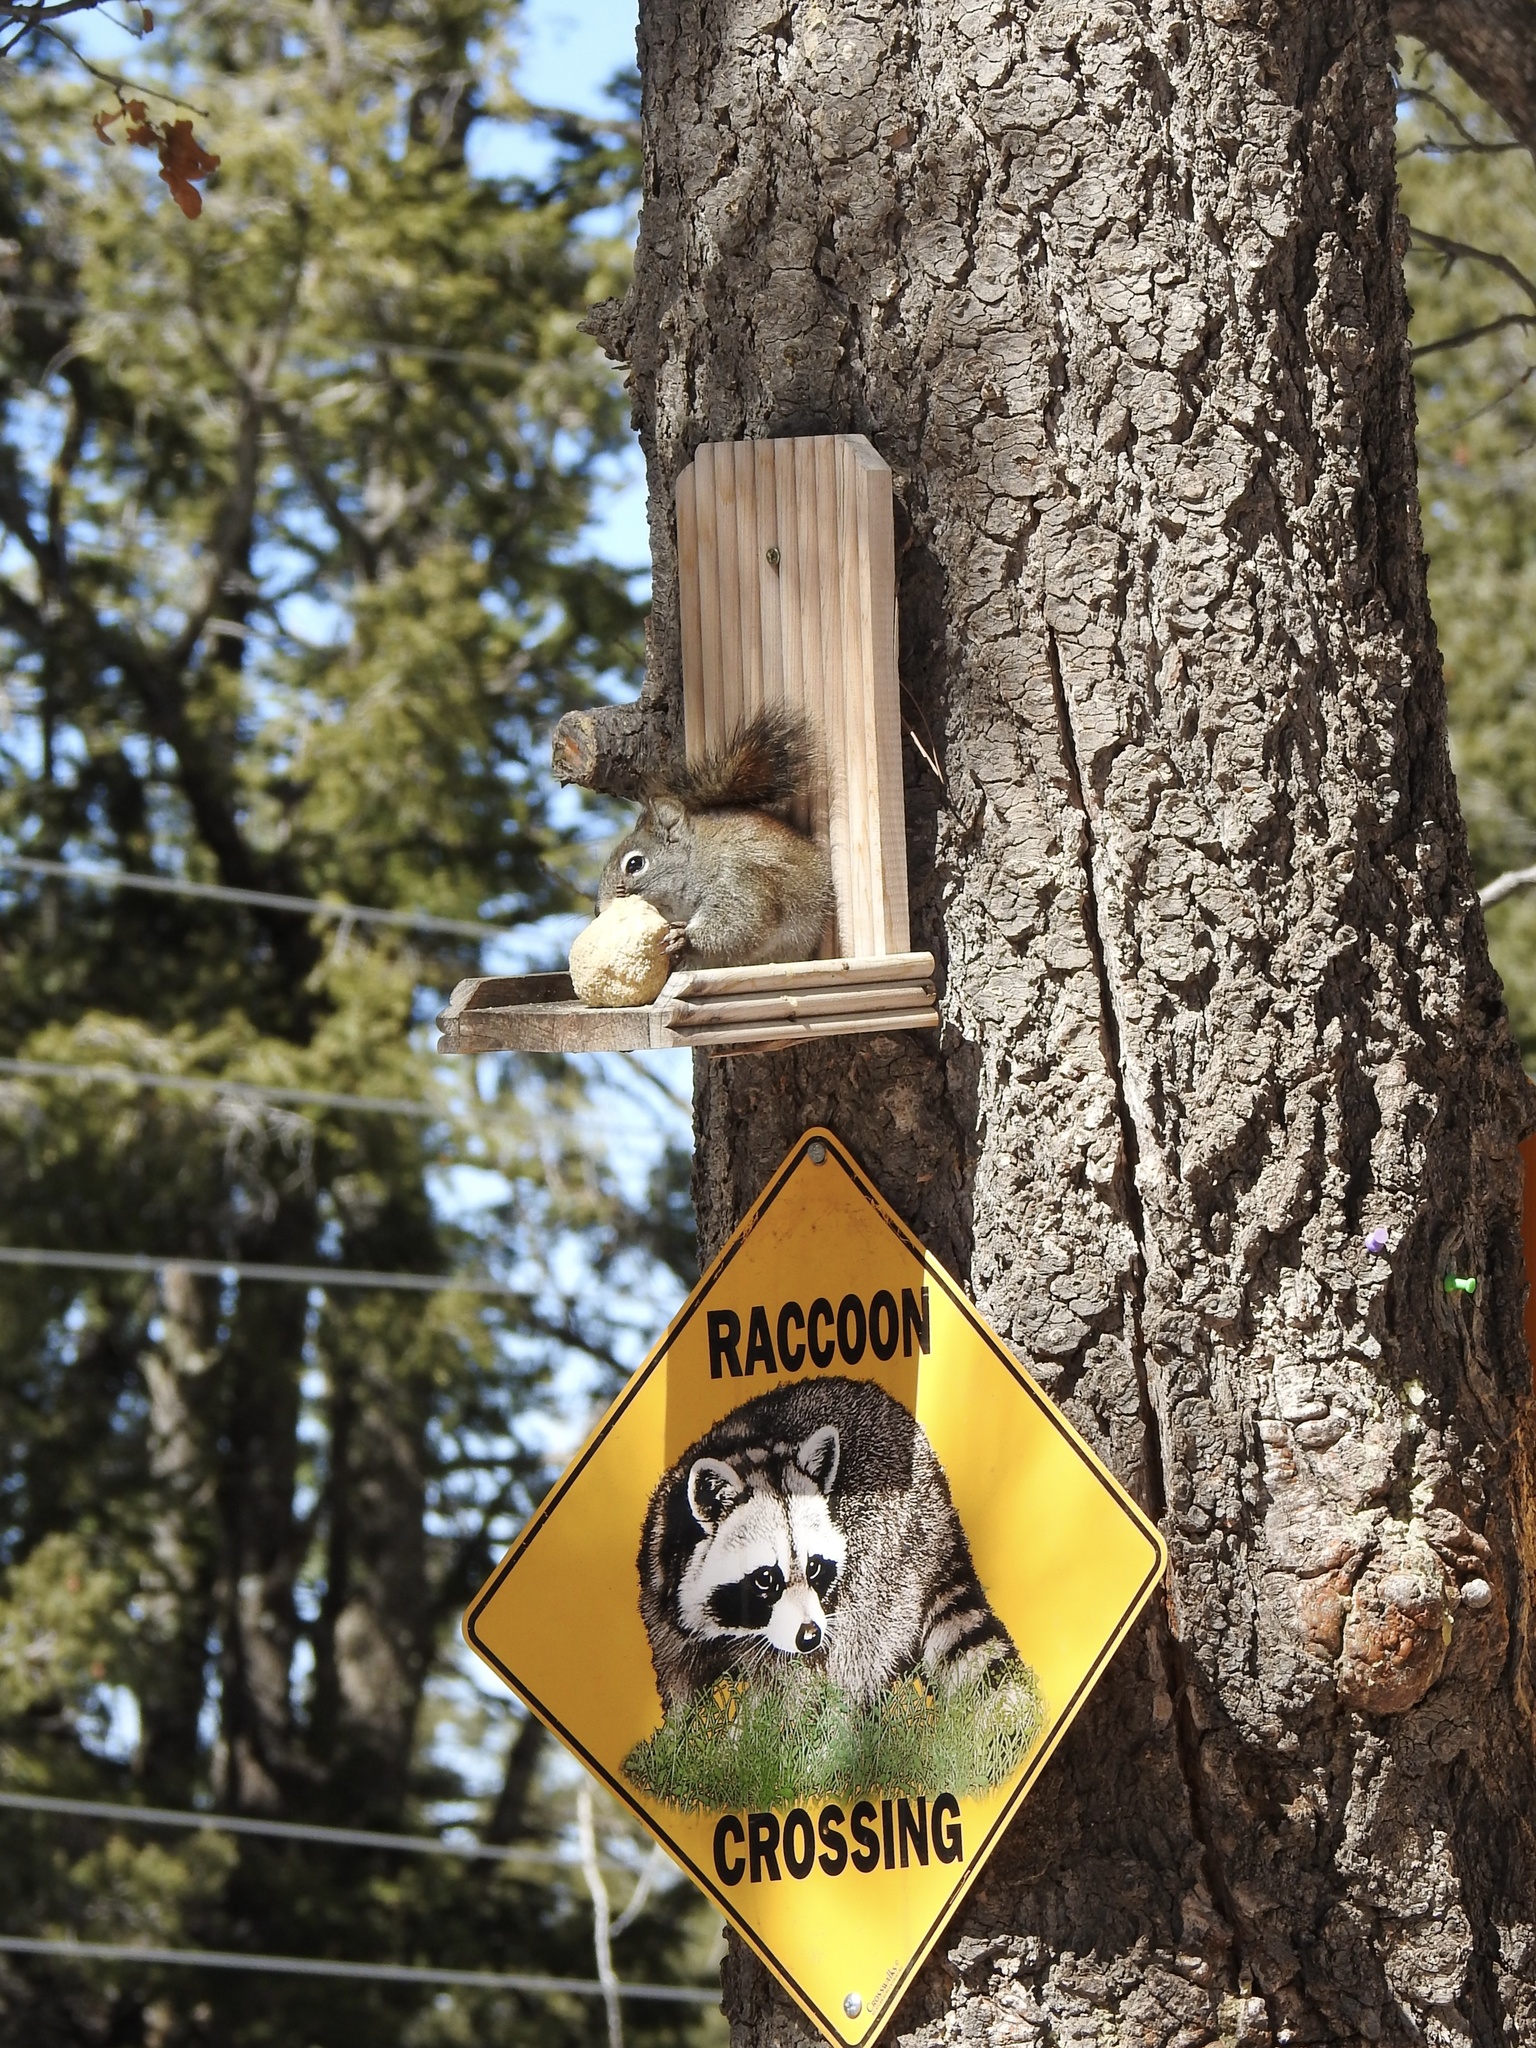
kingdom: Animalia
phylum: Chordata
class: Mammalia
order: Rodentia
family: Sciuridae
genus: Tamiasciurus
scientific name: Tamiasciurus hudsonicus
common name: Red squirrel
